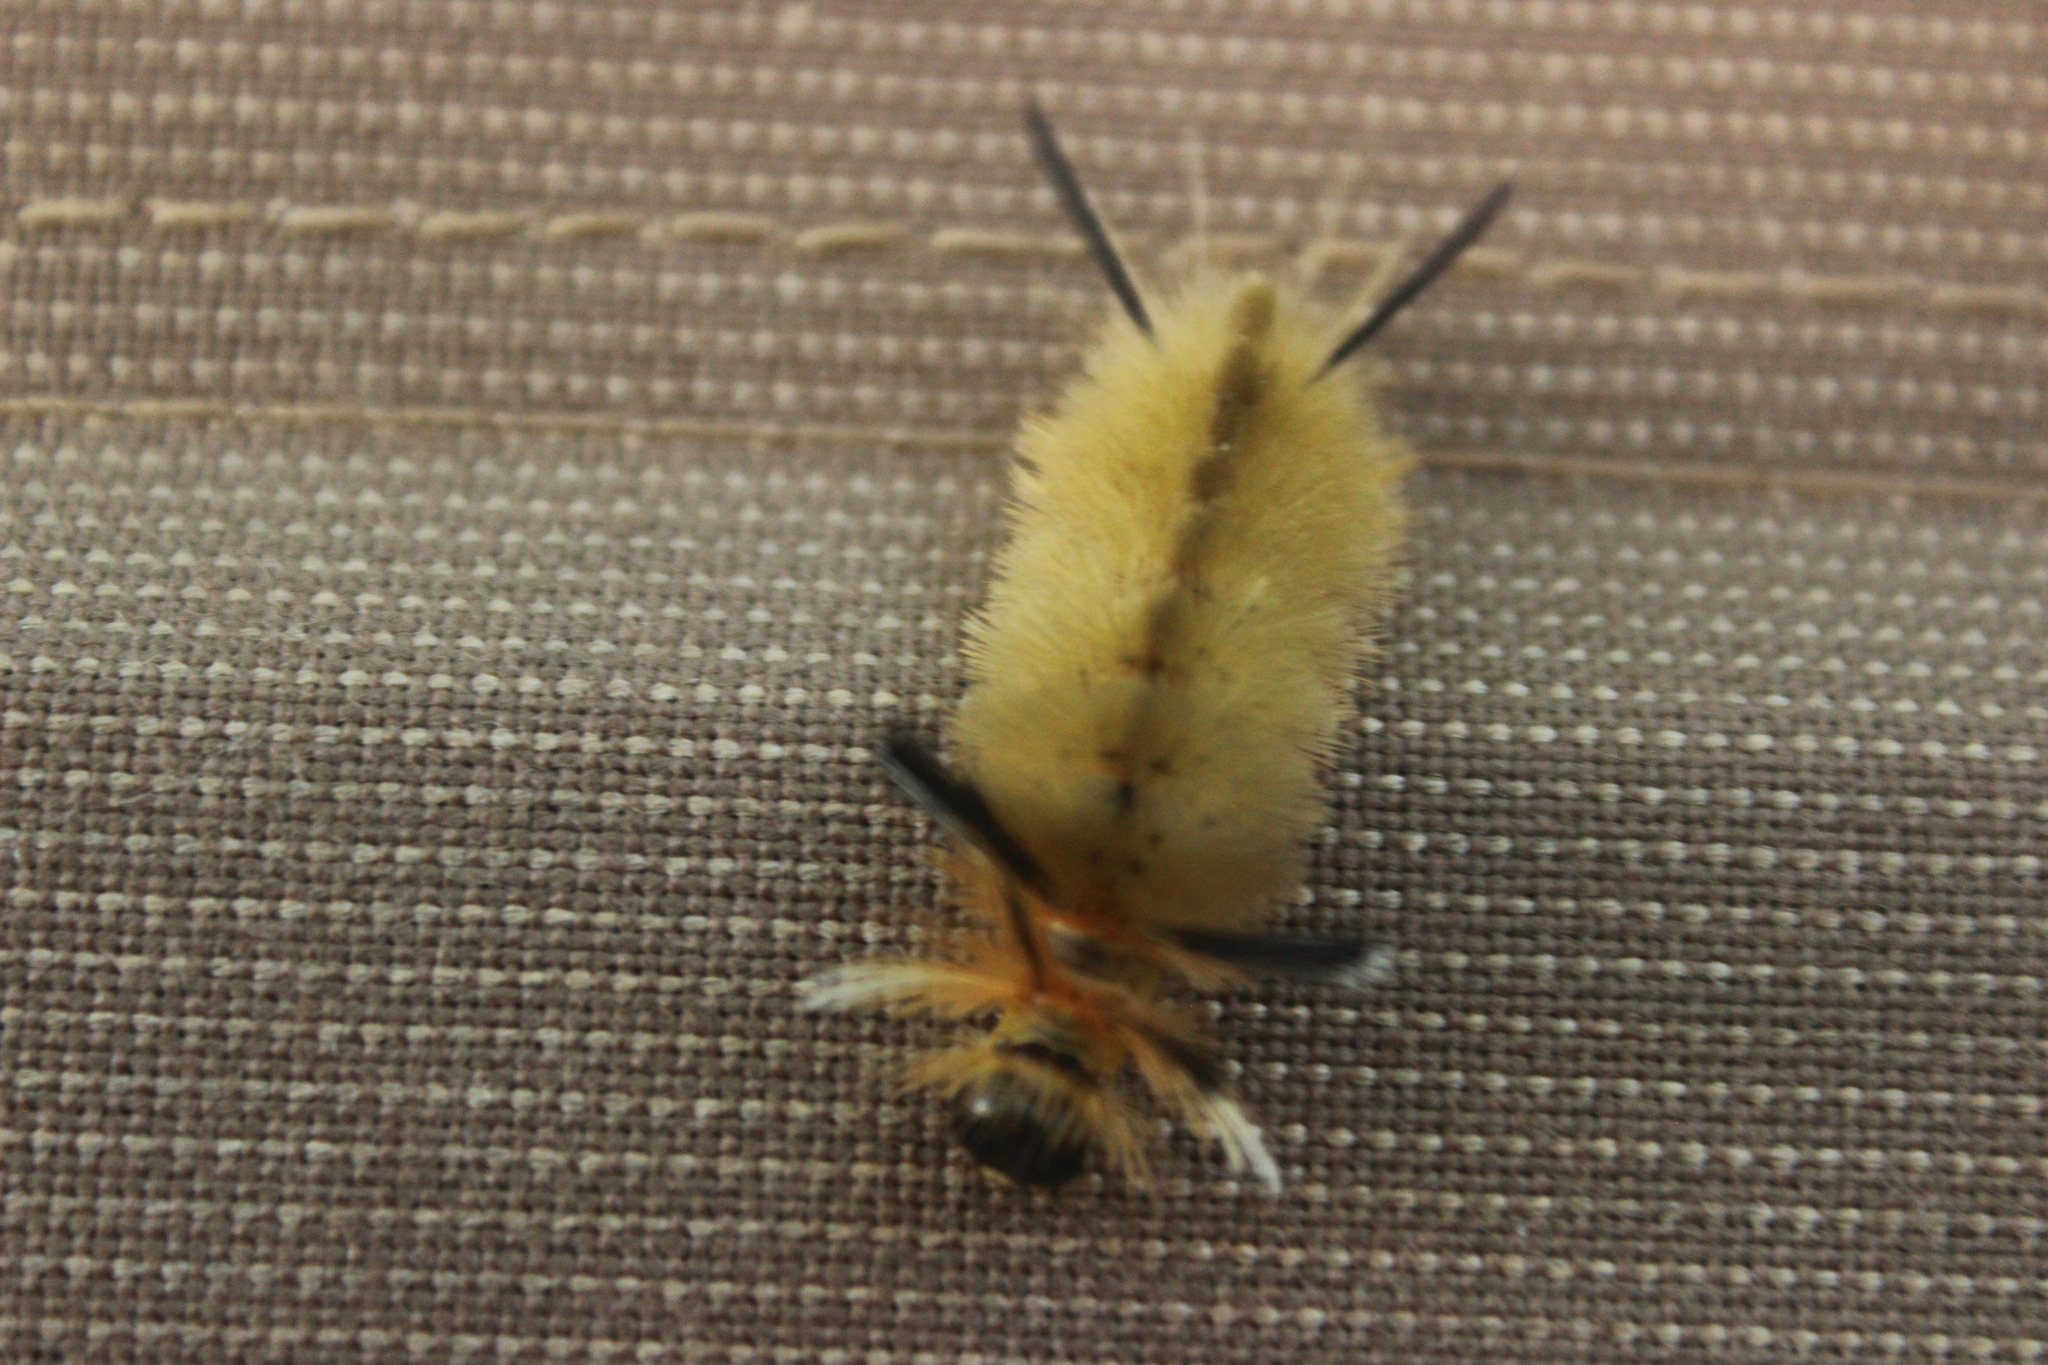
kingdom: Animalia
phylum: Arthropoda
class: Insecta
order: Lepidoptera
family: Erebidae
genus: Halysidota
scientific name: Halysidota tessellaris
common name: Banded tussock moth
